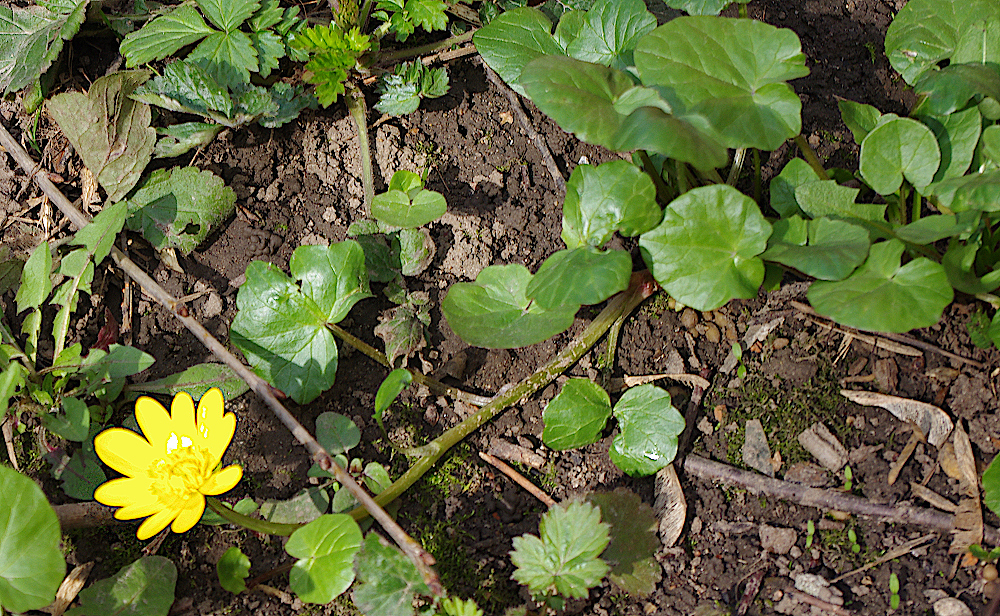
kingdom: Plantae
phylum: Tracheophyta
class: Magnoliopsida
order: Ranunculales
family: Ranunculaceae
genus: Ficaria
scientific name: Ficaria verna
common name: Lesser celandine
